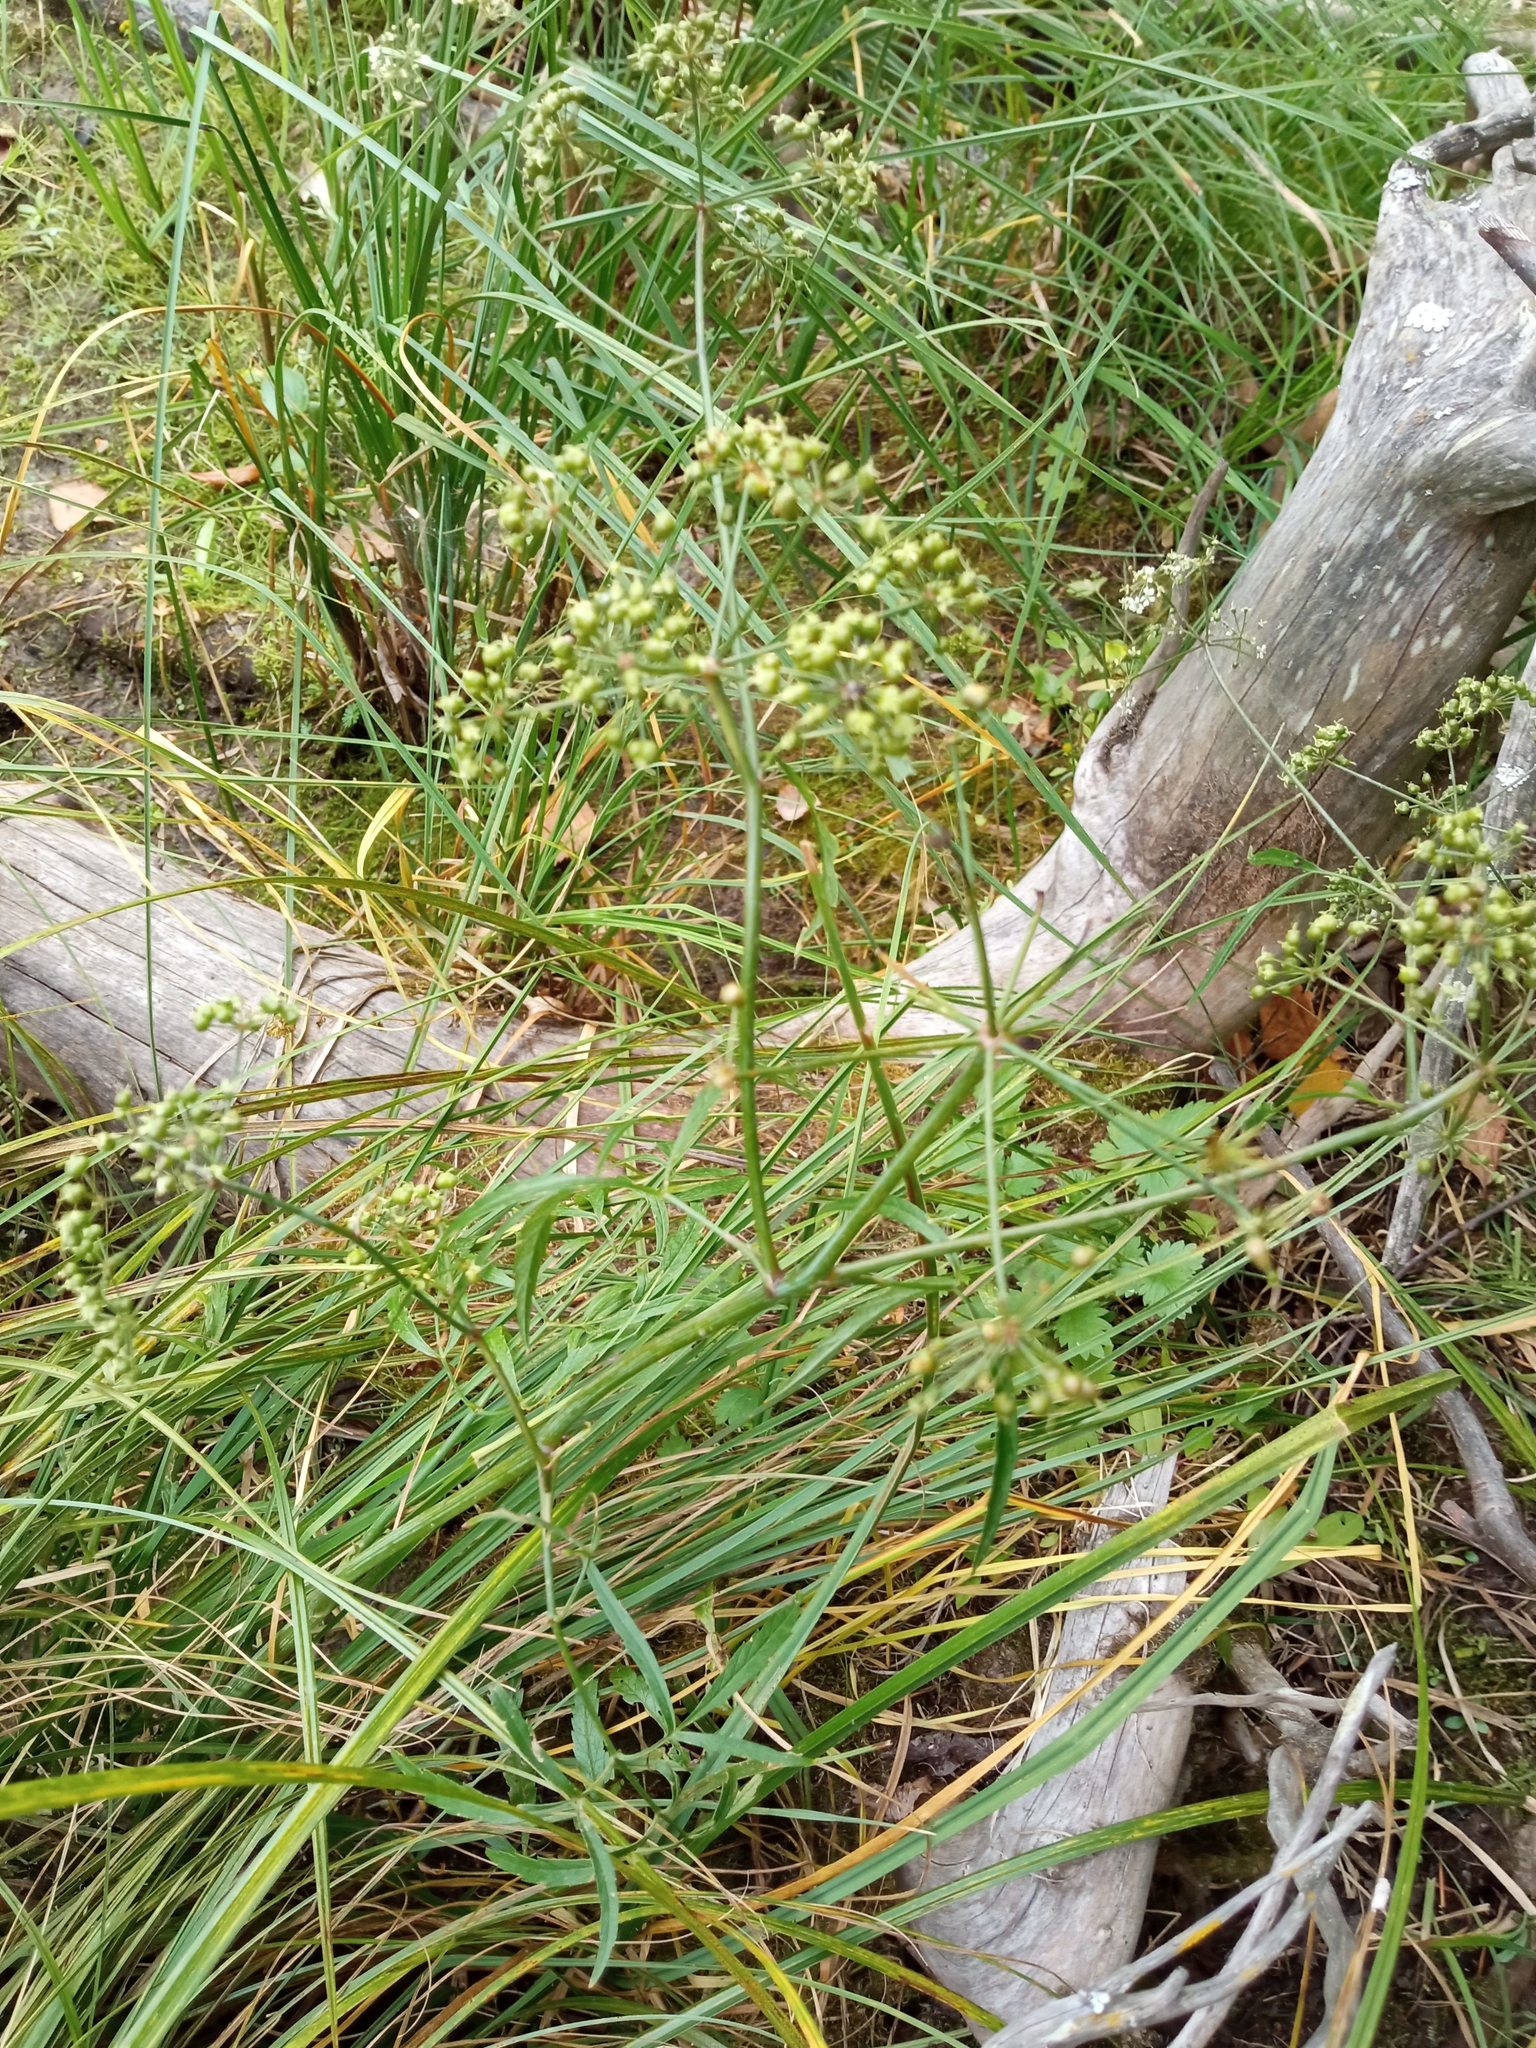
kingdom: Plantae
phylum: Tracheophyta
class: Magnoliopsida
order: Apiales
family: Apiaceae
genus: Cicuta
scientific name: Cicuta virosa
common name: Cowbane
